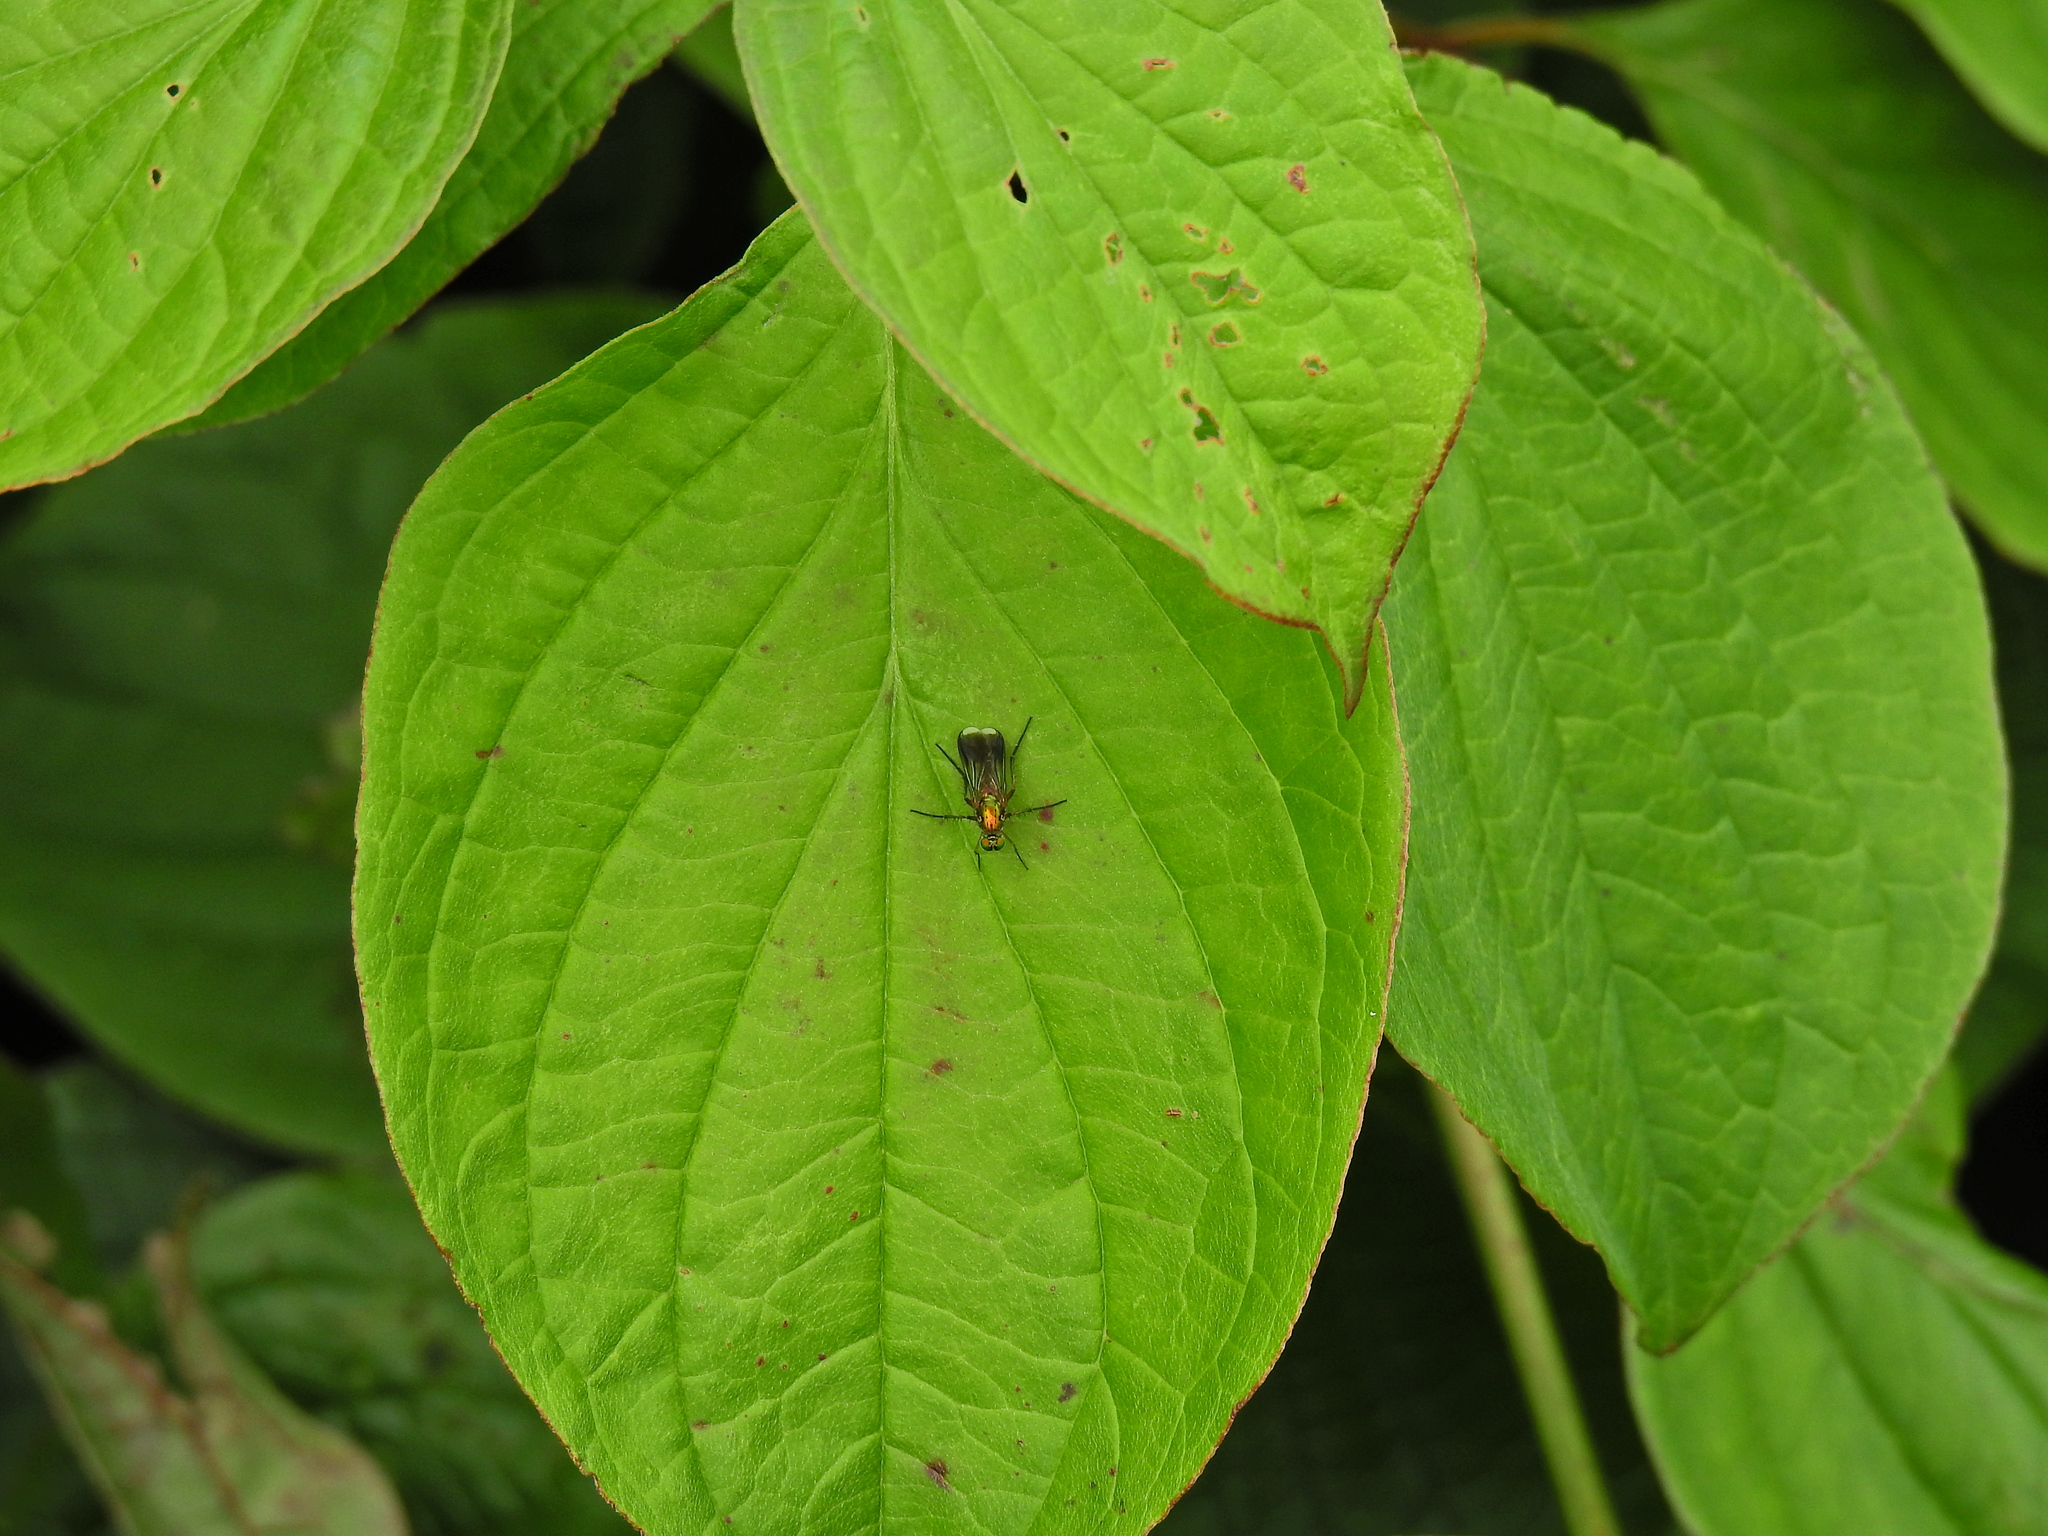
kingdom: Animalia
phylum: Arthropoda
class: Insecta
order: Diptera
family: Dolichopodidae
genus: Poecilobothrus
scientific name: Poecilobothrus nobilitatus
